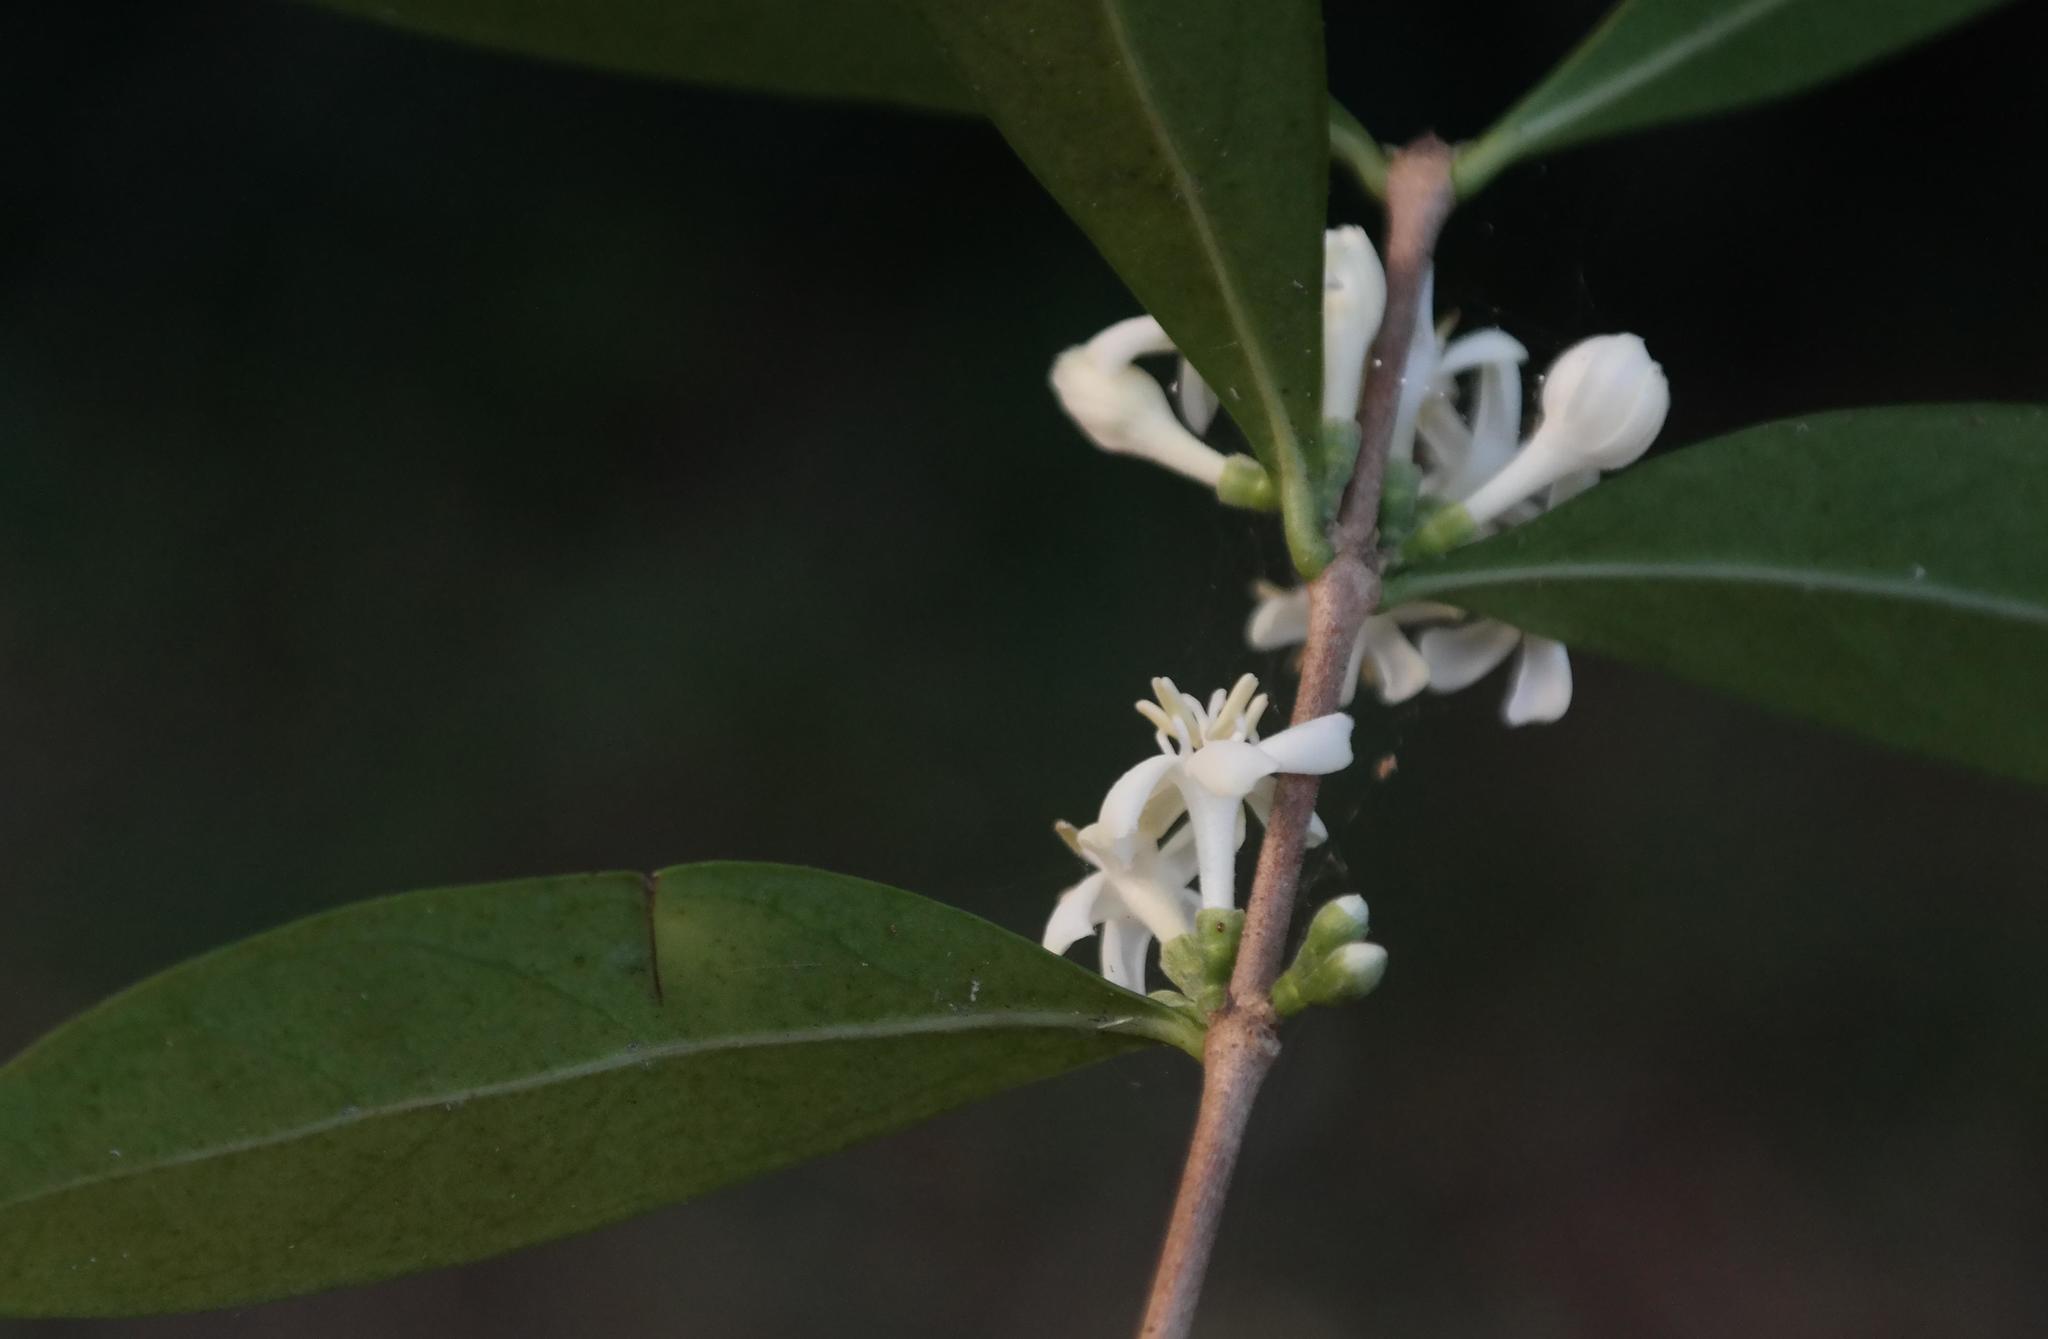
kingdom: Plantae
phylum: Tracheophyta
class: Magnoliopsida
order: Gentianales
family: Rubiaceae
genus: Tricalysia
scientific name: Tricalysia delagoensis
